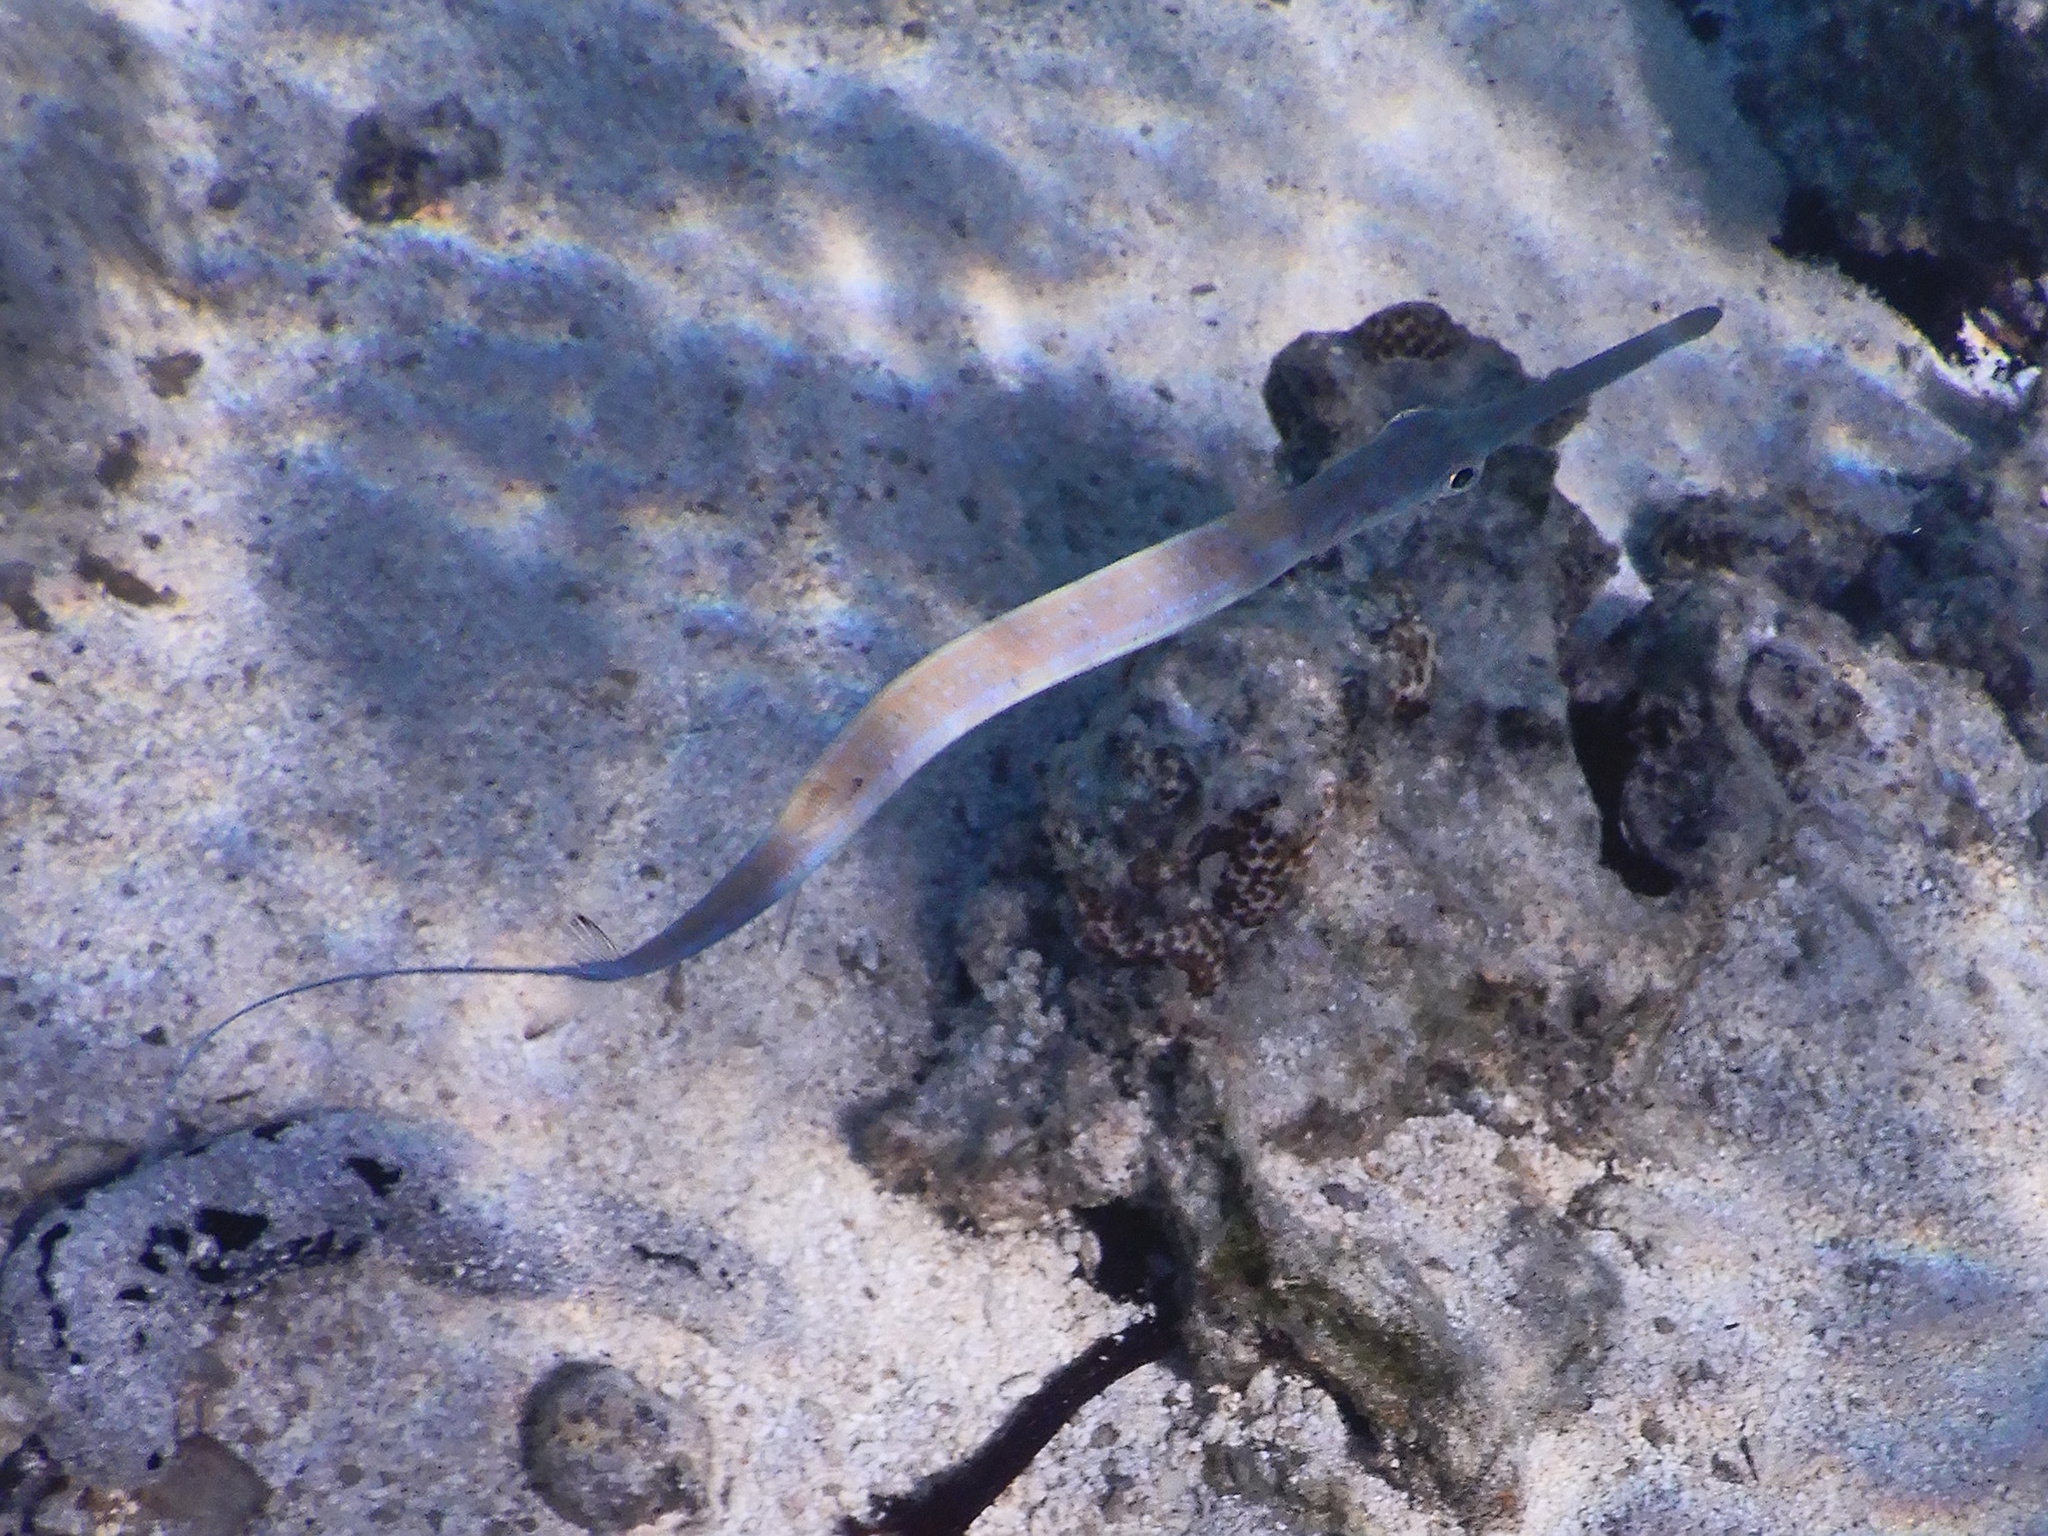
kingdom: Animalia
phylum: Chordata
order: Syngnathiformes
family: Fistulariidae
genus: Fistularia
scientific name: Fistularia commersonii
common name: Bluespotted cornetfish
